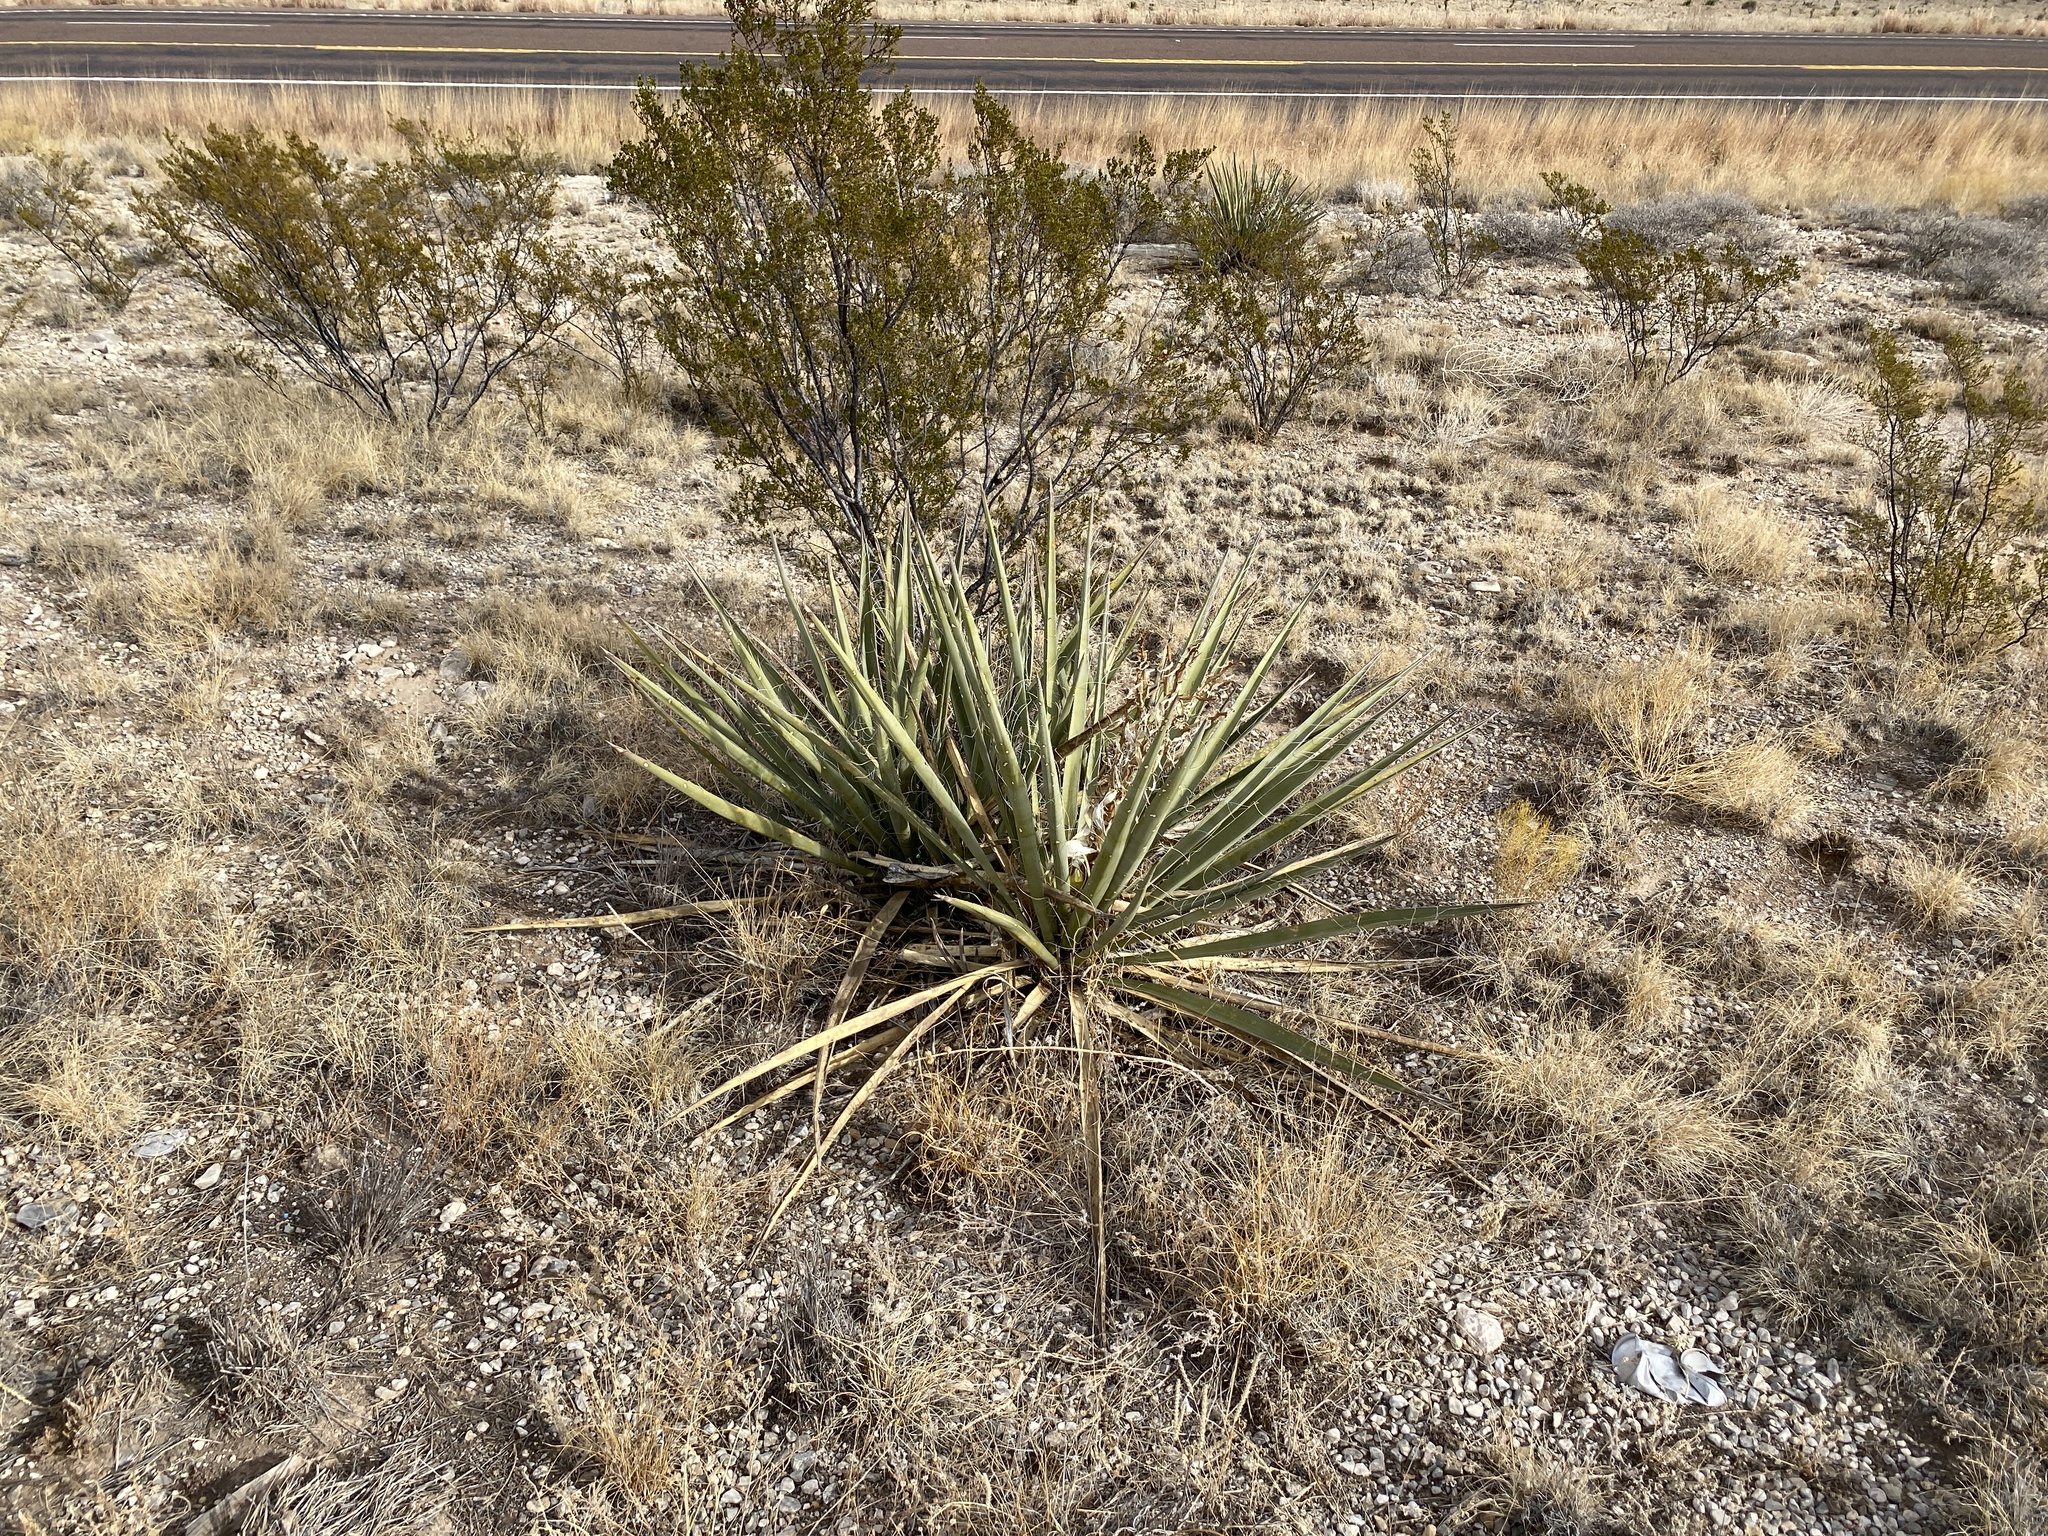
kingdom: Plantae
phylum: Tracheophyta
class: Liliopsida
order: Asparagales
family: Asparagaceae
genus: Yucca
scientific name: Yucca baccata
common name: Banana yucca
